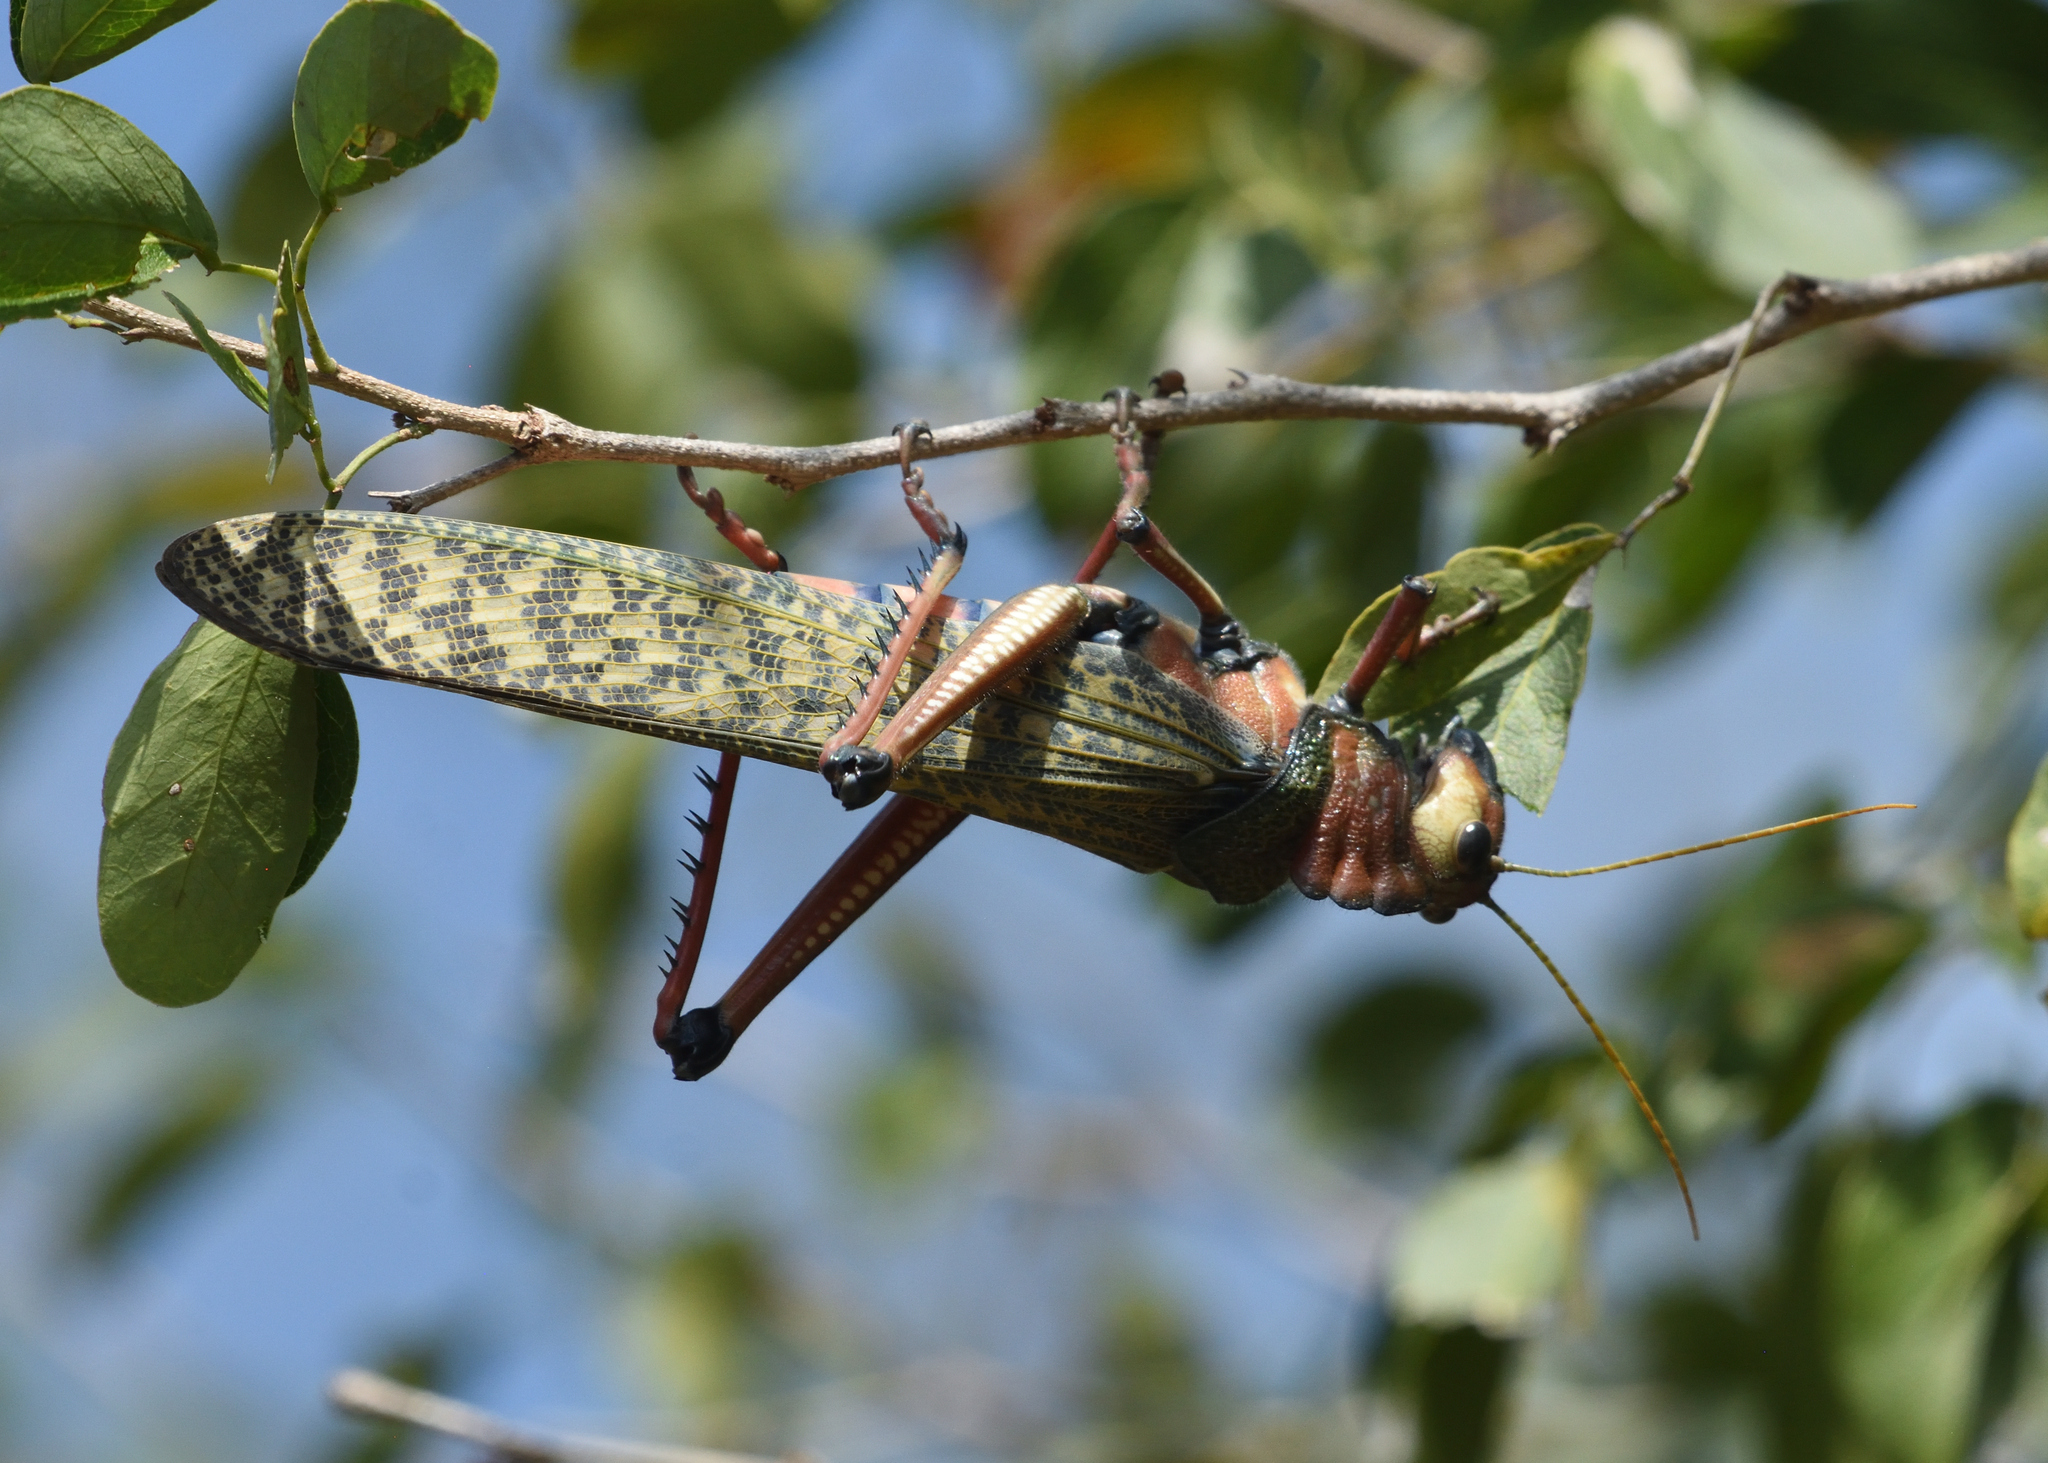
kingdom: Animalia
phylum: Arthropoda
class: Insecta
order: Orthoptera
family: Romaleidae
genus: Tropidacris
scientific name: Tropidacris collaris
